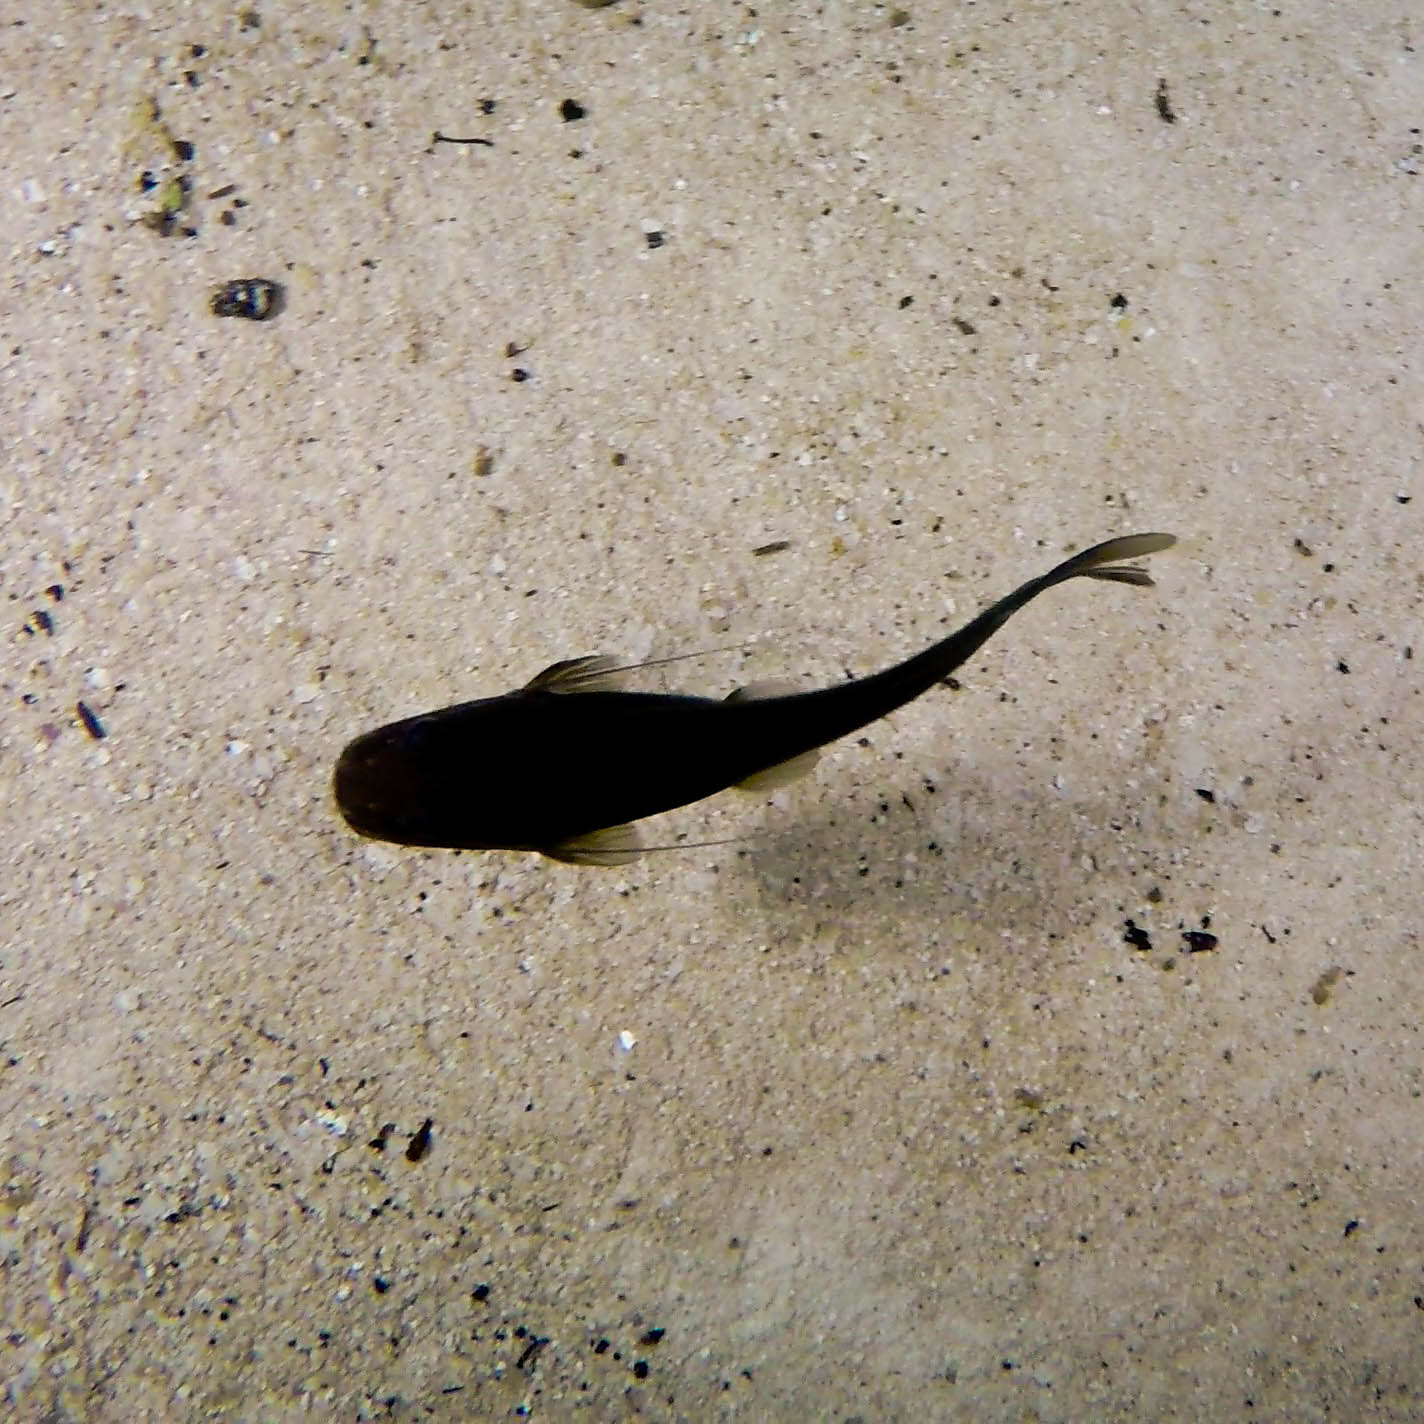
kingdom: Animalia
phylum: Chordata
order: Siluriformes
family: Heptapteridae
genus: Rhamdia
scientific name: Rhamdia guatemalensis
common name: Pale catfish
